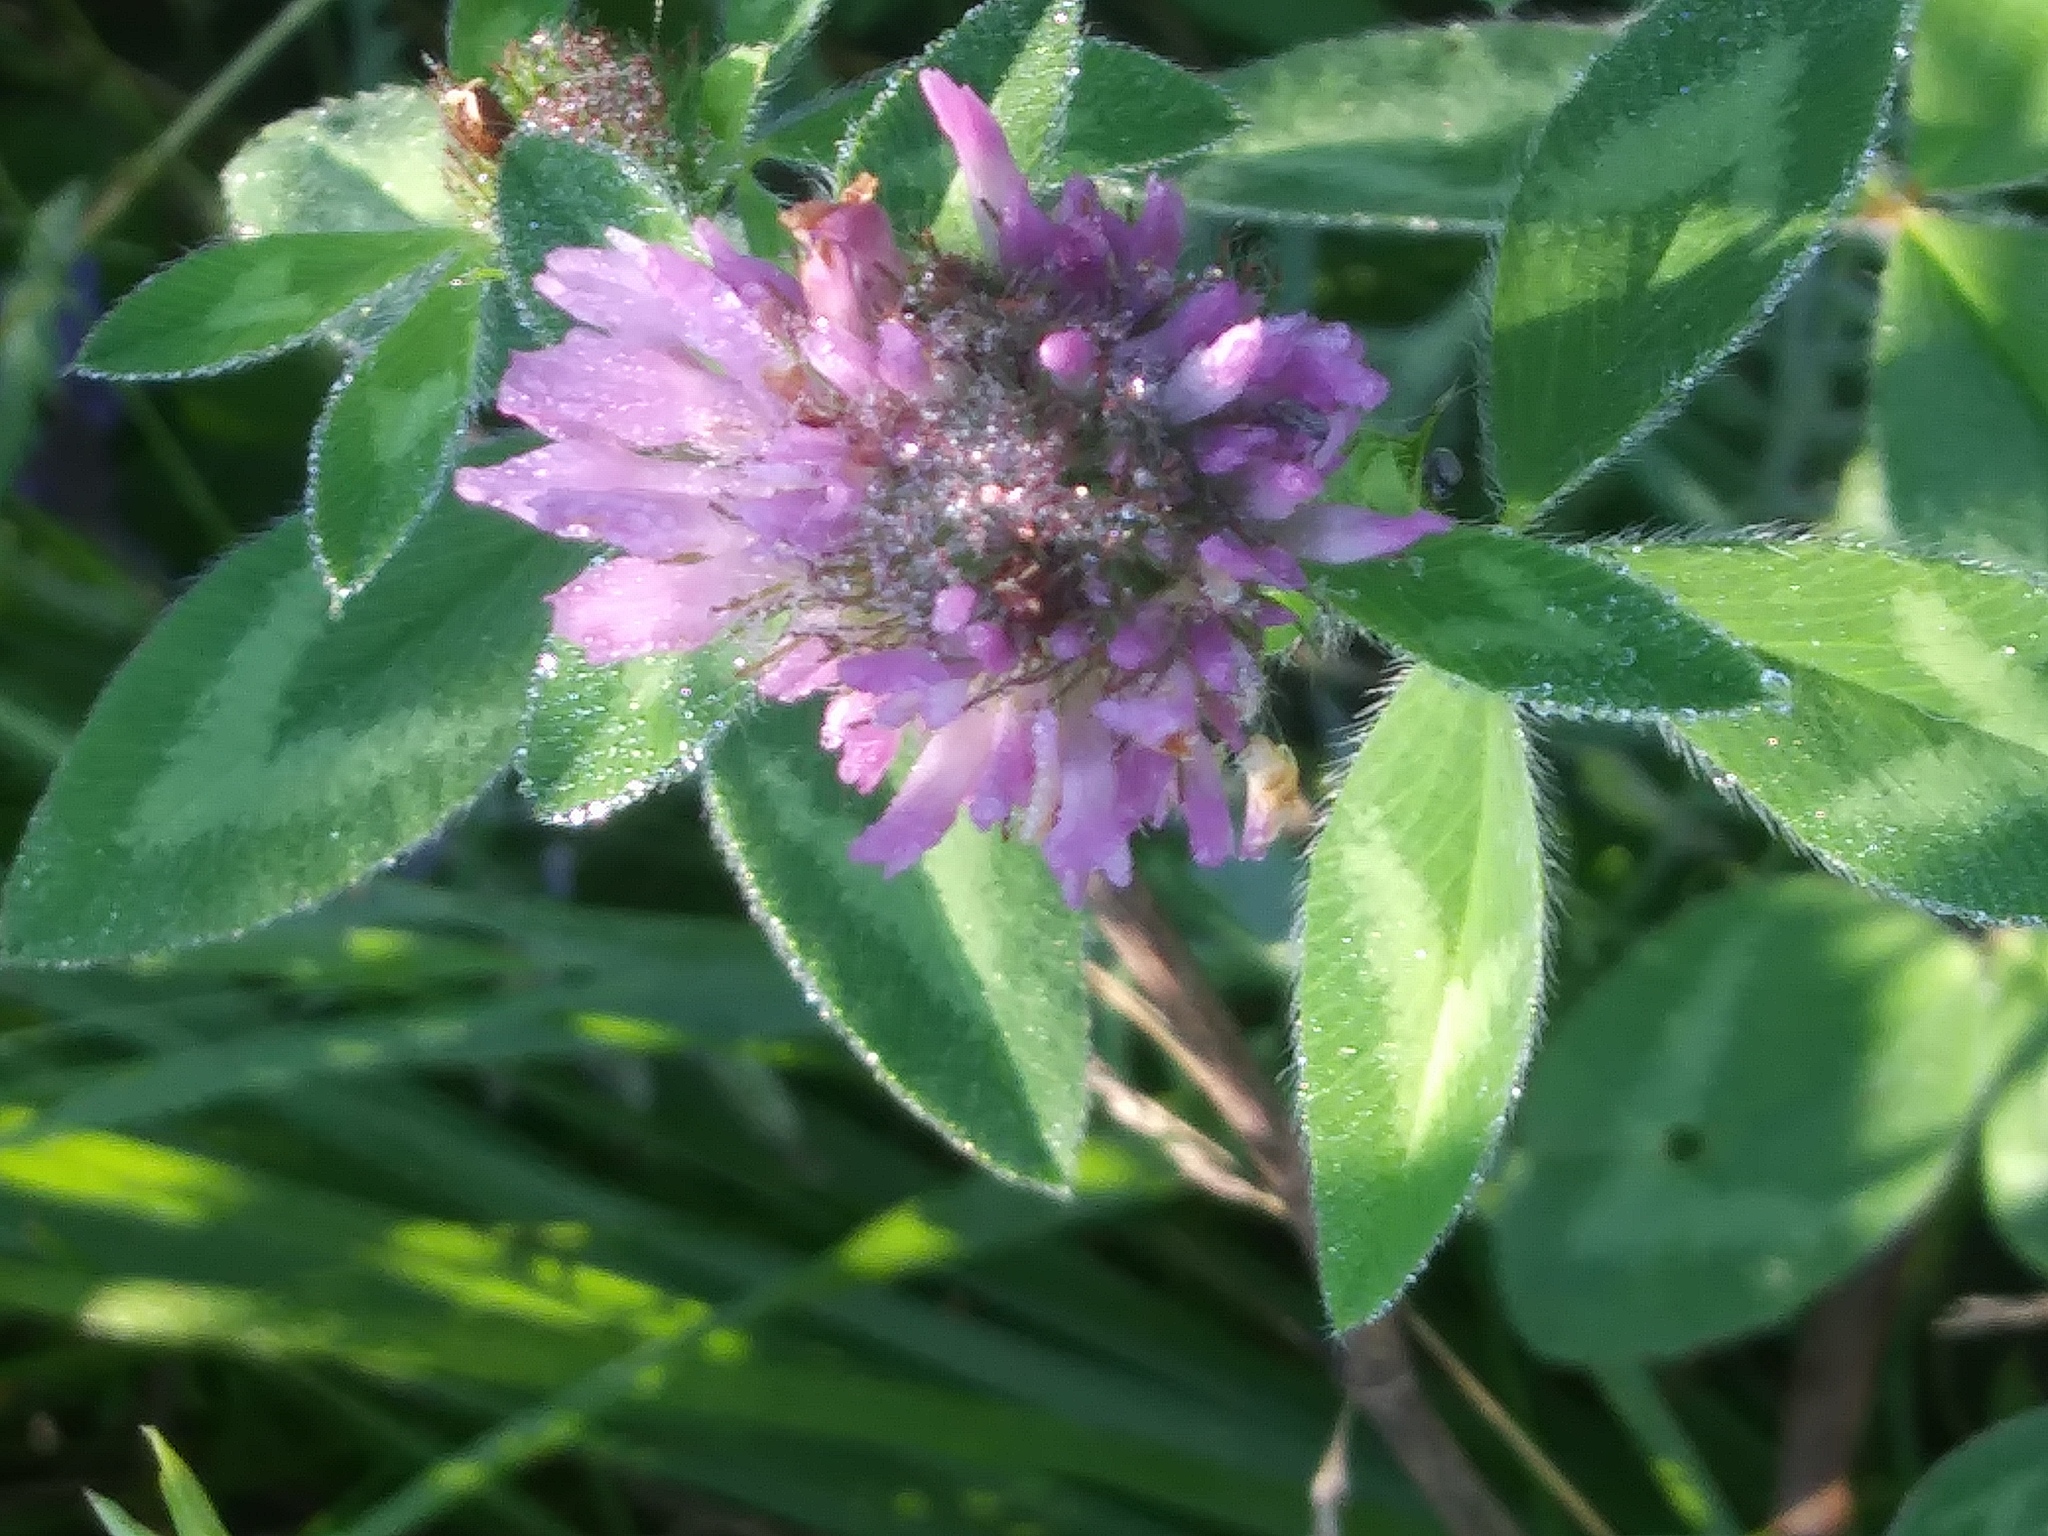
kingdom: Plantae
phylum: Tracheophyta
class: Magnoliopsida
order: Fabales
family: Fabaceae
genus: Trifolium
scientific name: Trifolium pratense
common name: Red clover
